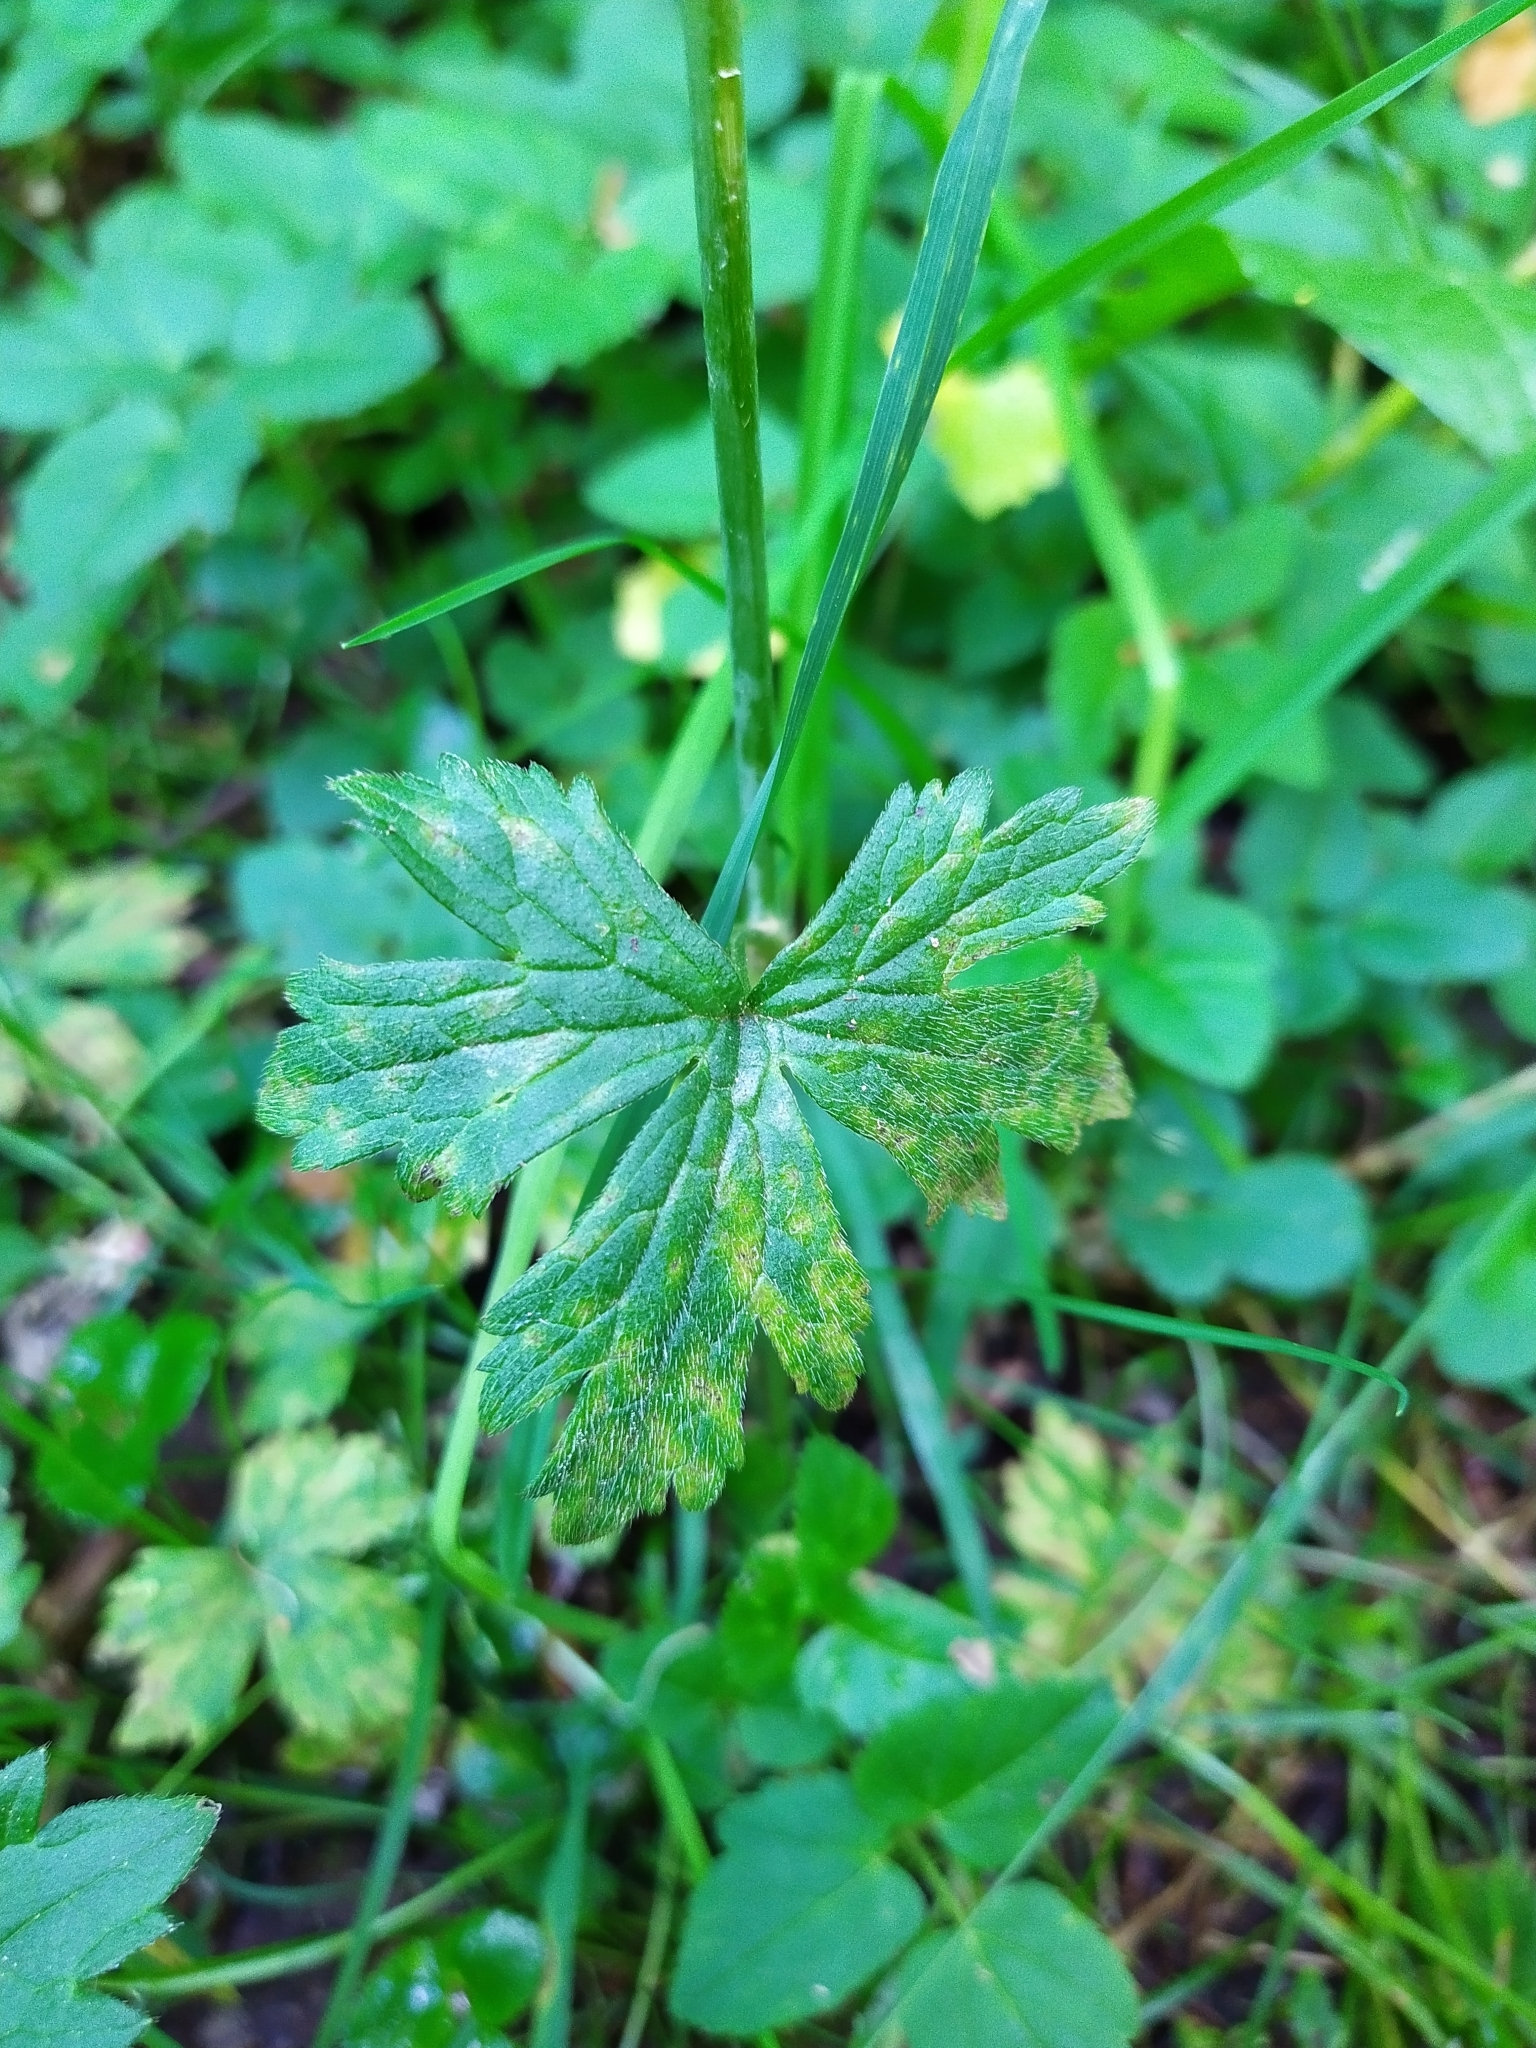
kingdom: Plantae
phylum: Tracheophyta
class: Magnoliopsida
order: Ranunculales
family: Ranunculaceae
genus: Ranunculus
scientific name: Ranunculus acris
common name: Meadow buttercup
